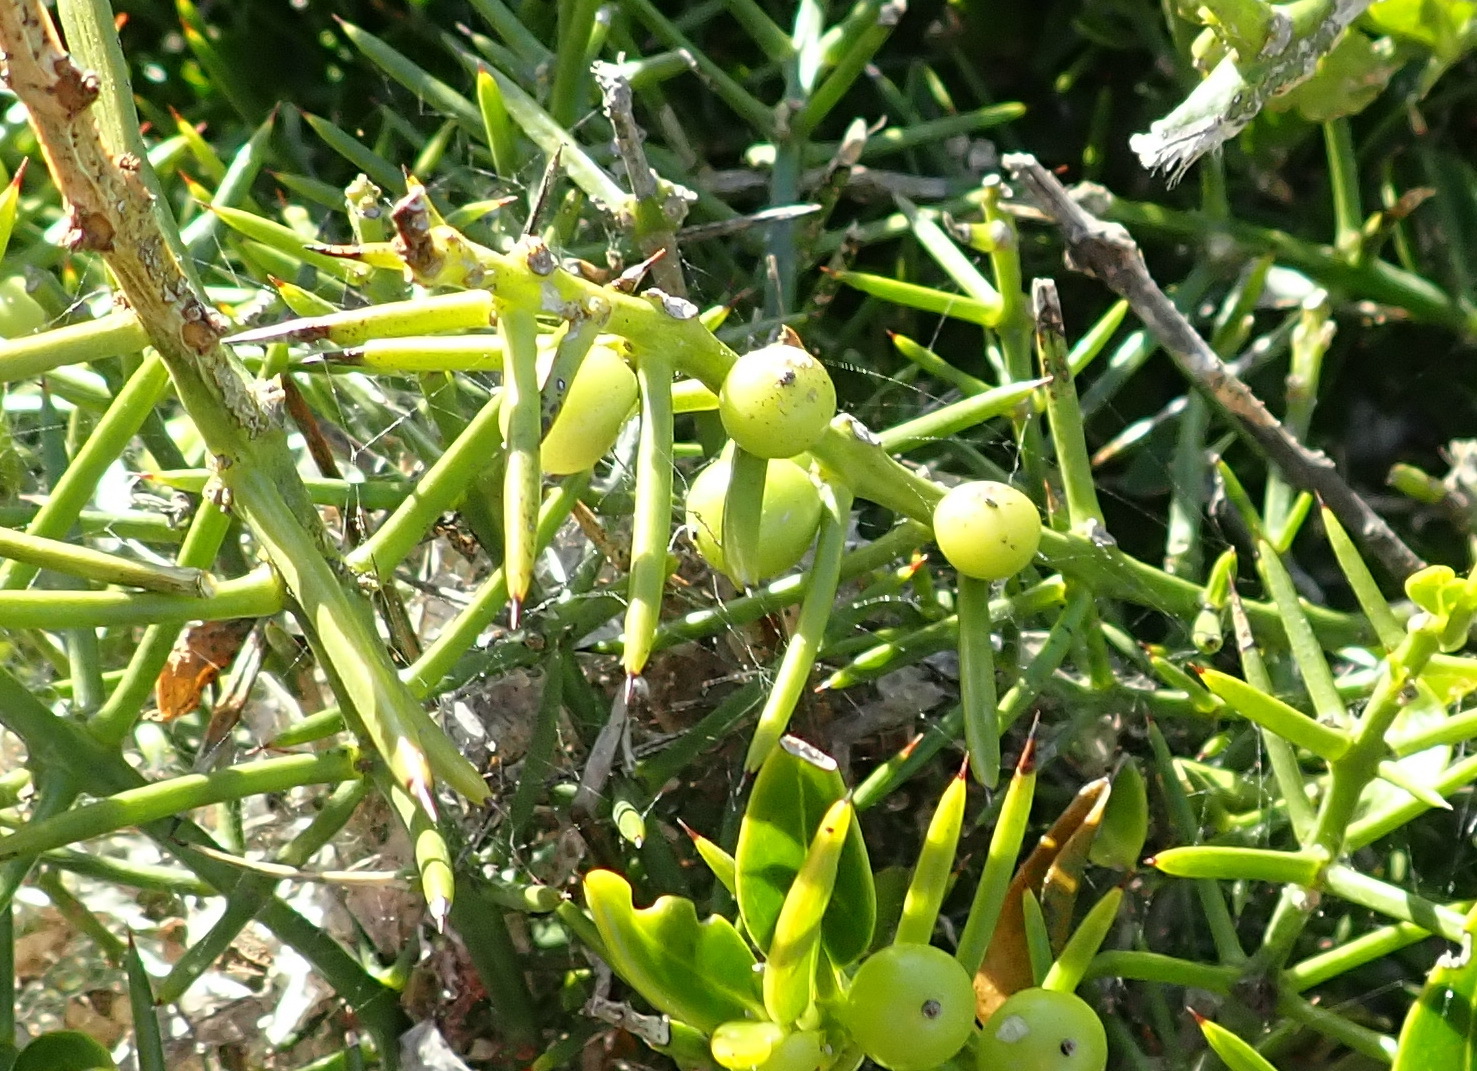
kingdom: Plantae
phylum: Tracheophyta
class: Magnoliopsida
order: Brassicales
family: Salvadoraceae
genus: Azima
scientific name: Azima tetracantha
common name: Needle bush
